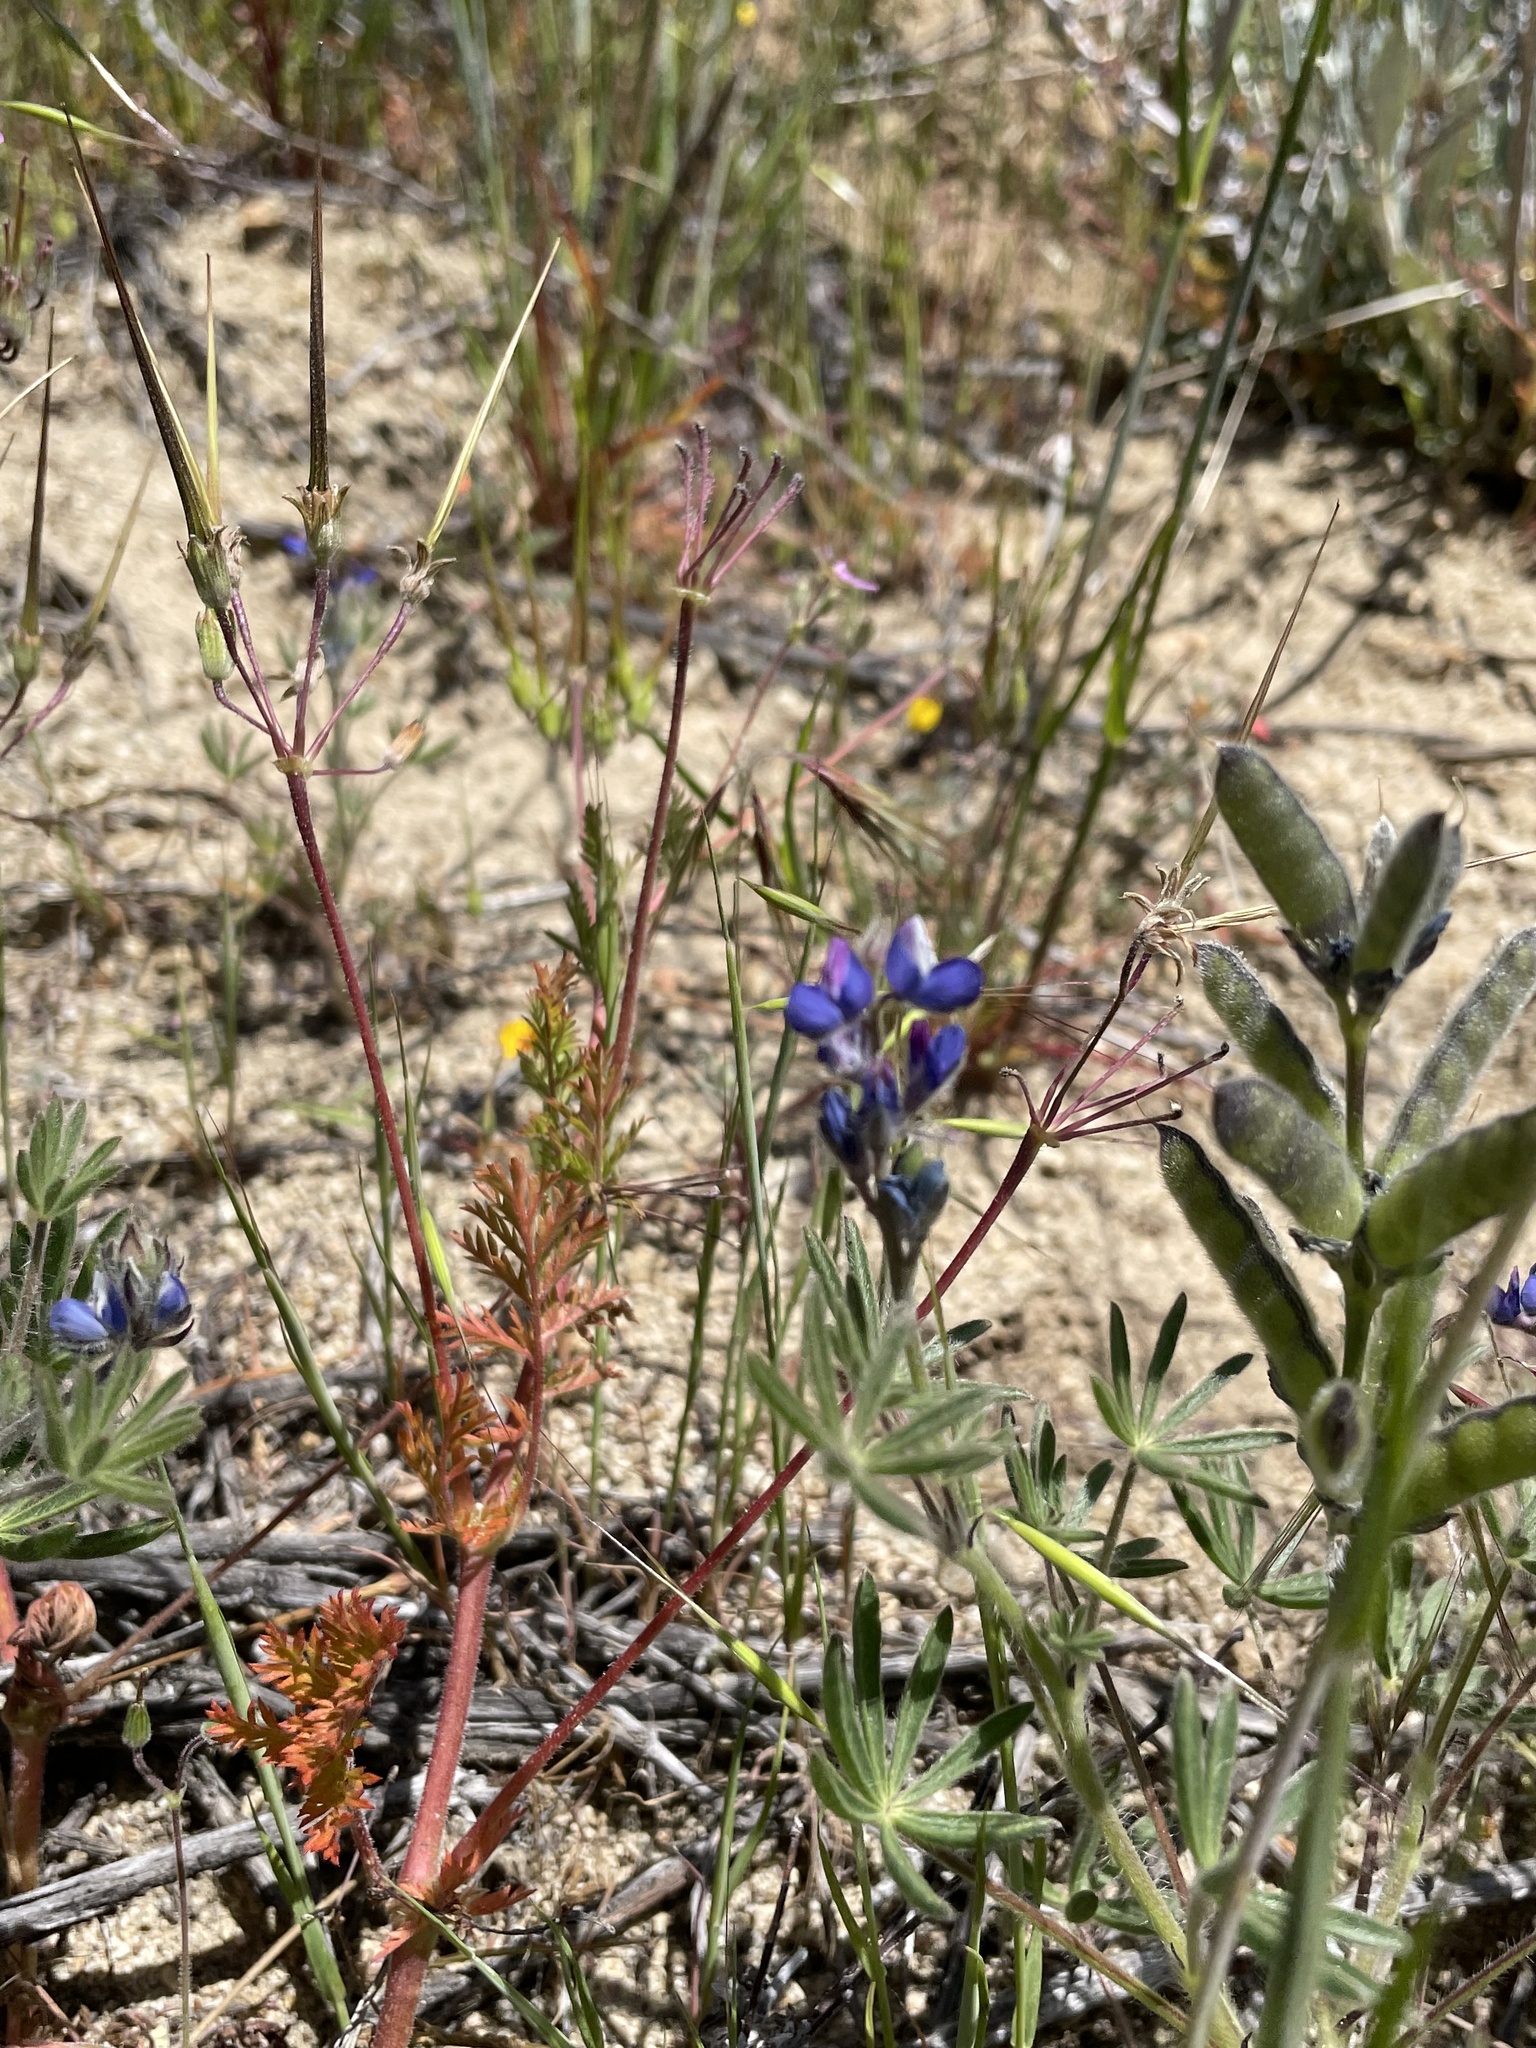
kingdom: Plantae
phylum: Tracheophyta
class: Magnoliopsida
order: Fabales
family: Fabaceae
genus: Lupinus
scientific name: Lupinus bicolor
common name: Miniature lupine
